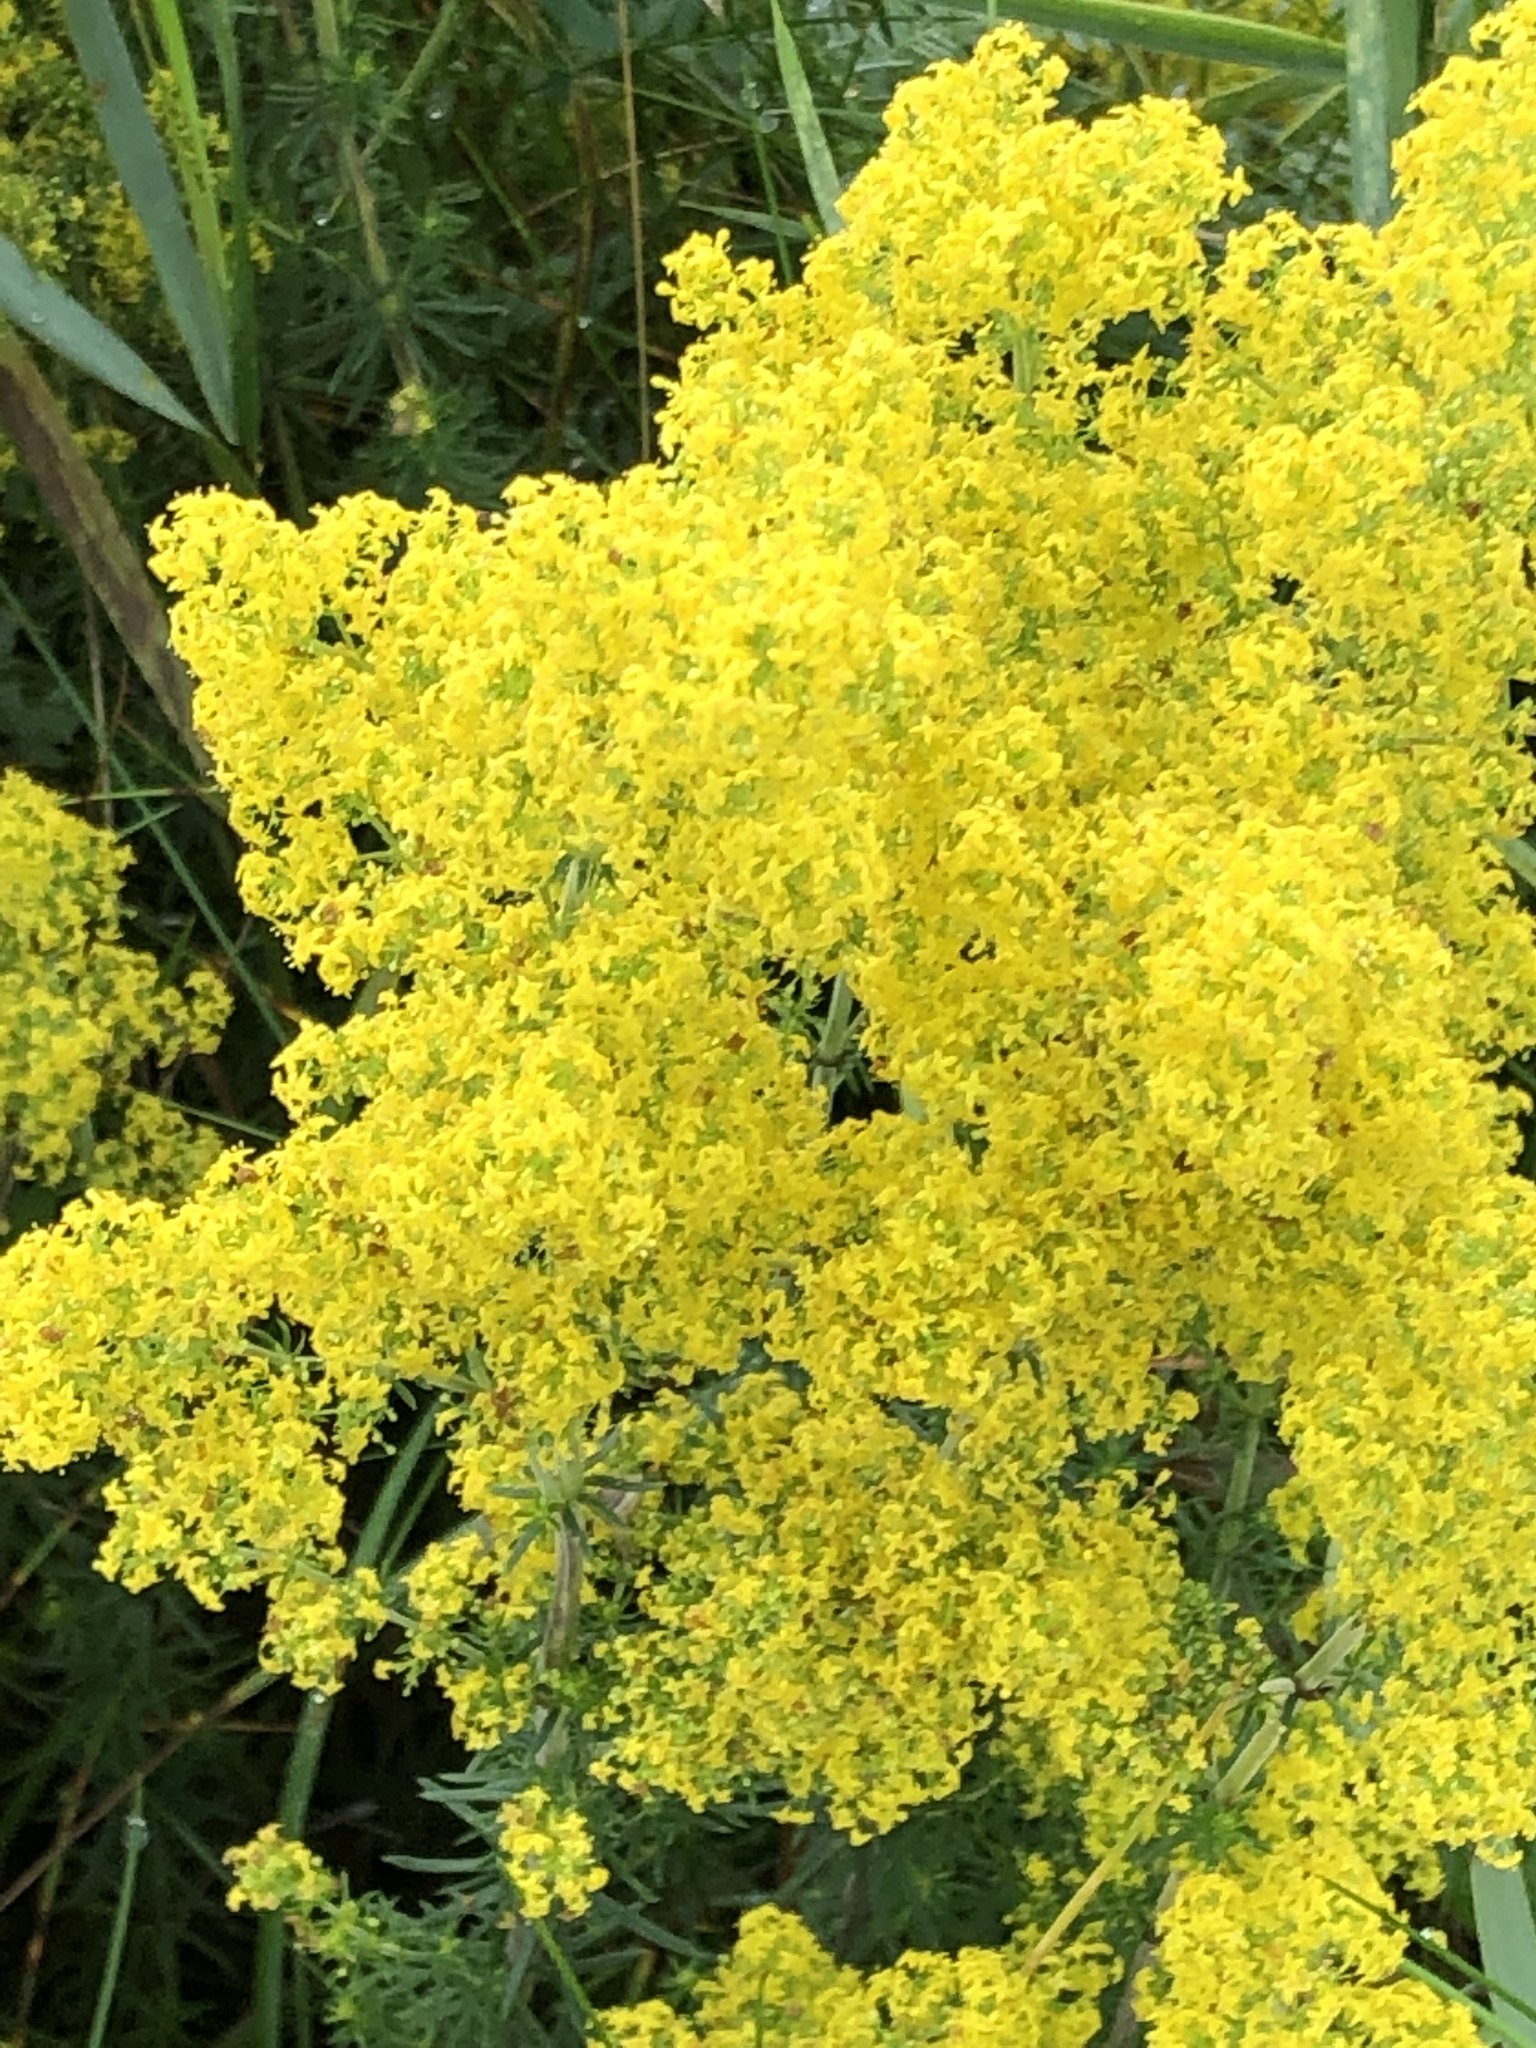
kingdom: Plantae
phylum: Tracheophyta
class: Magnoliopsida
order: Gentianales
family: Rubiaceae
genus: Galium
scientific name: Galium verum
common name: Lady's bedstraw
